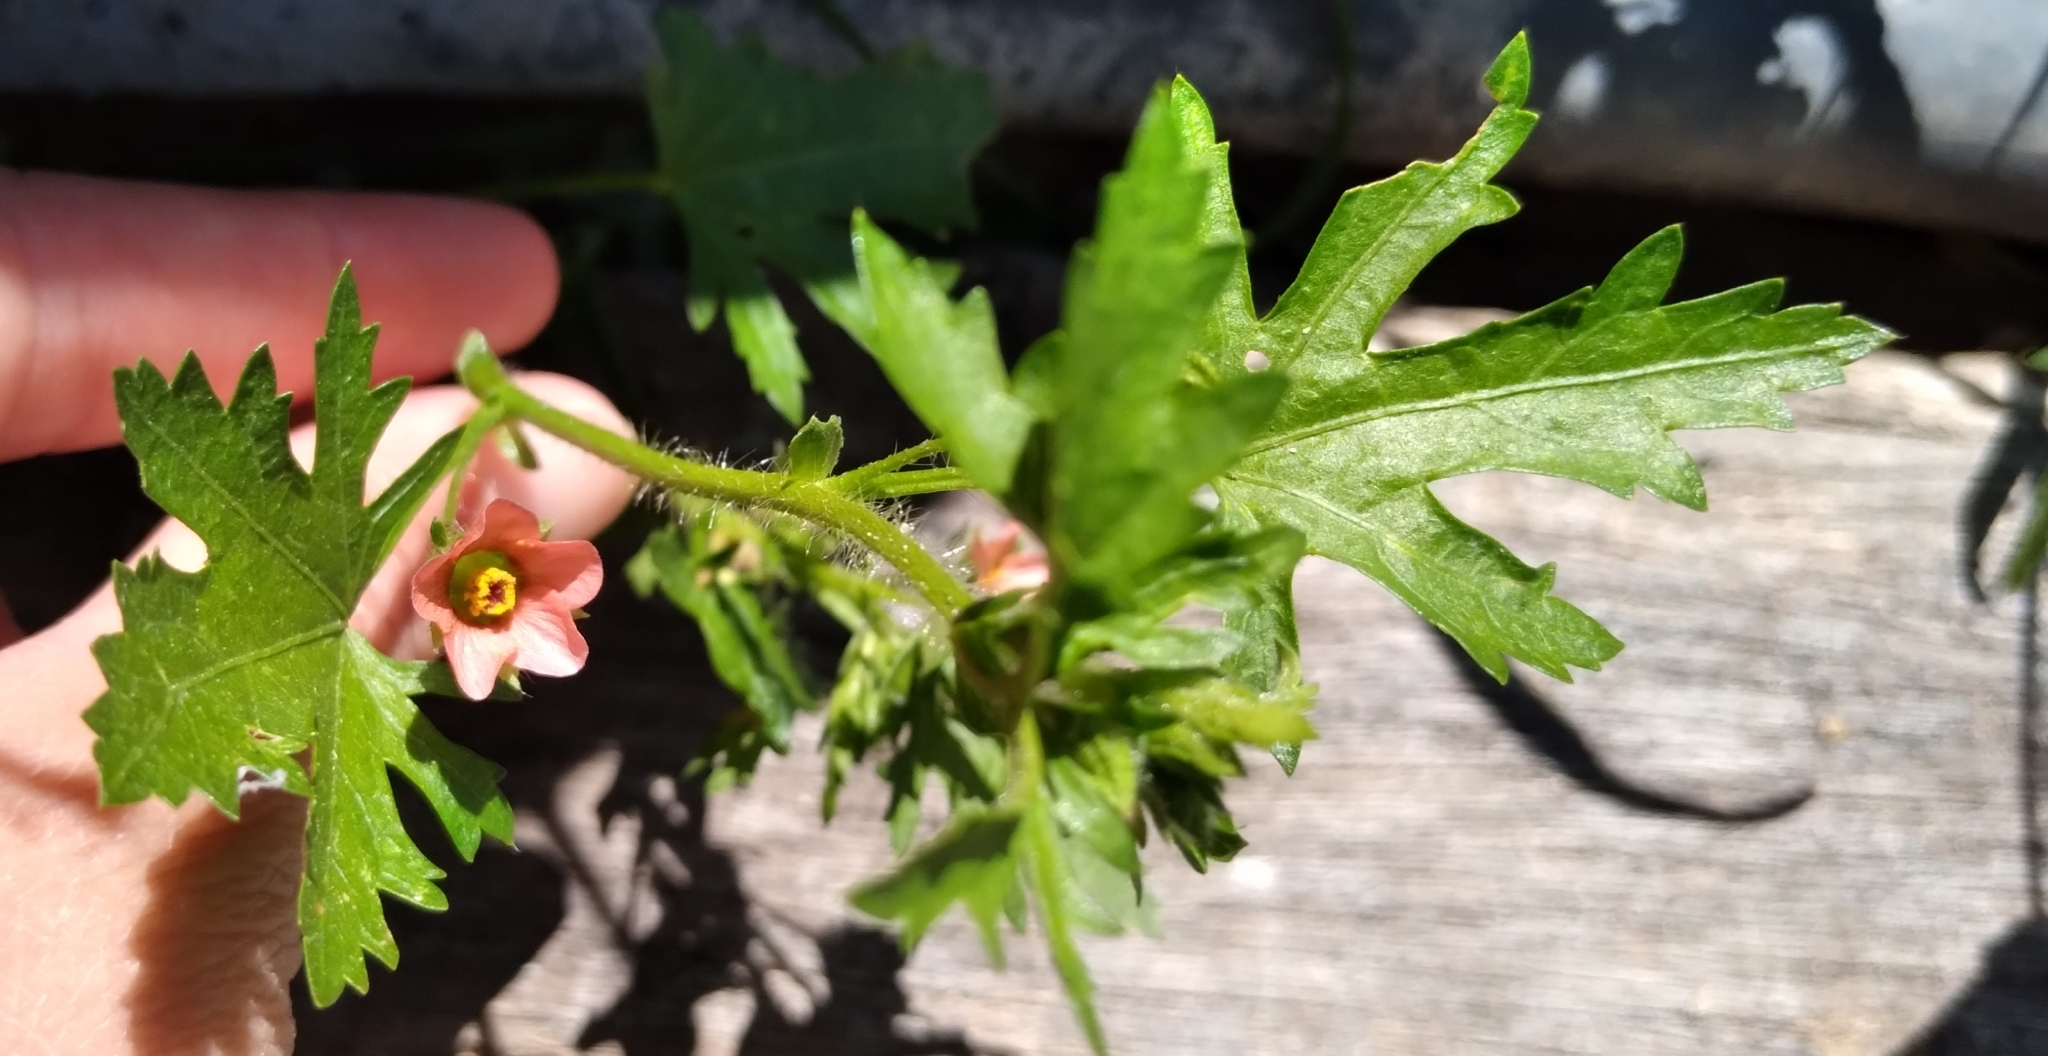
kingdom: Plantae
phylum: Tracheophyta
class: Magnoliopsida
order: Malvales
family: Malvaceae
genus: Modiola
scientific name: Modiola caroliniana
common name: Carolina bristlemallow
